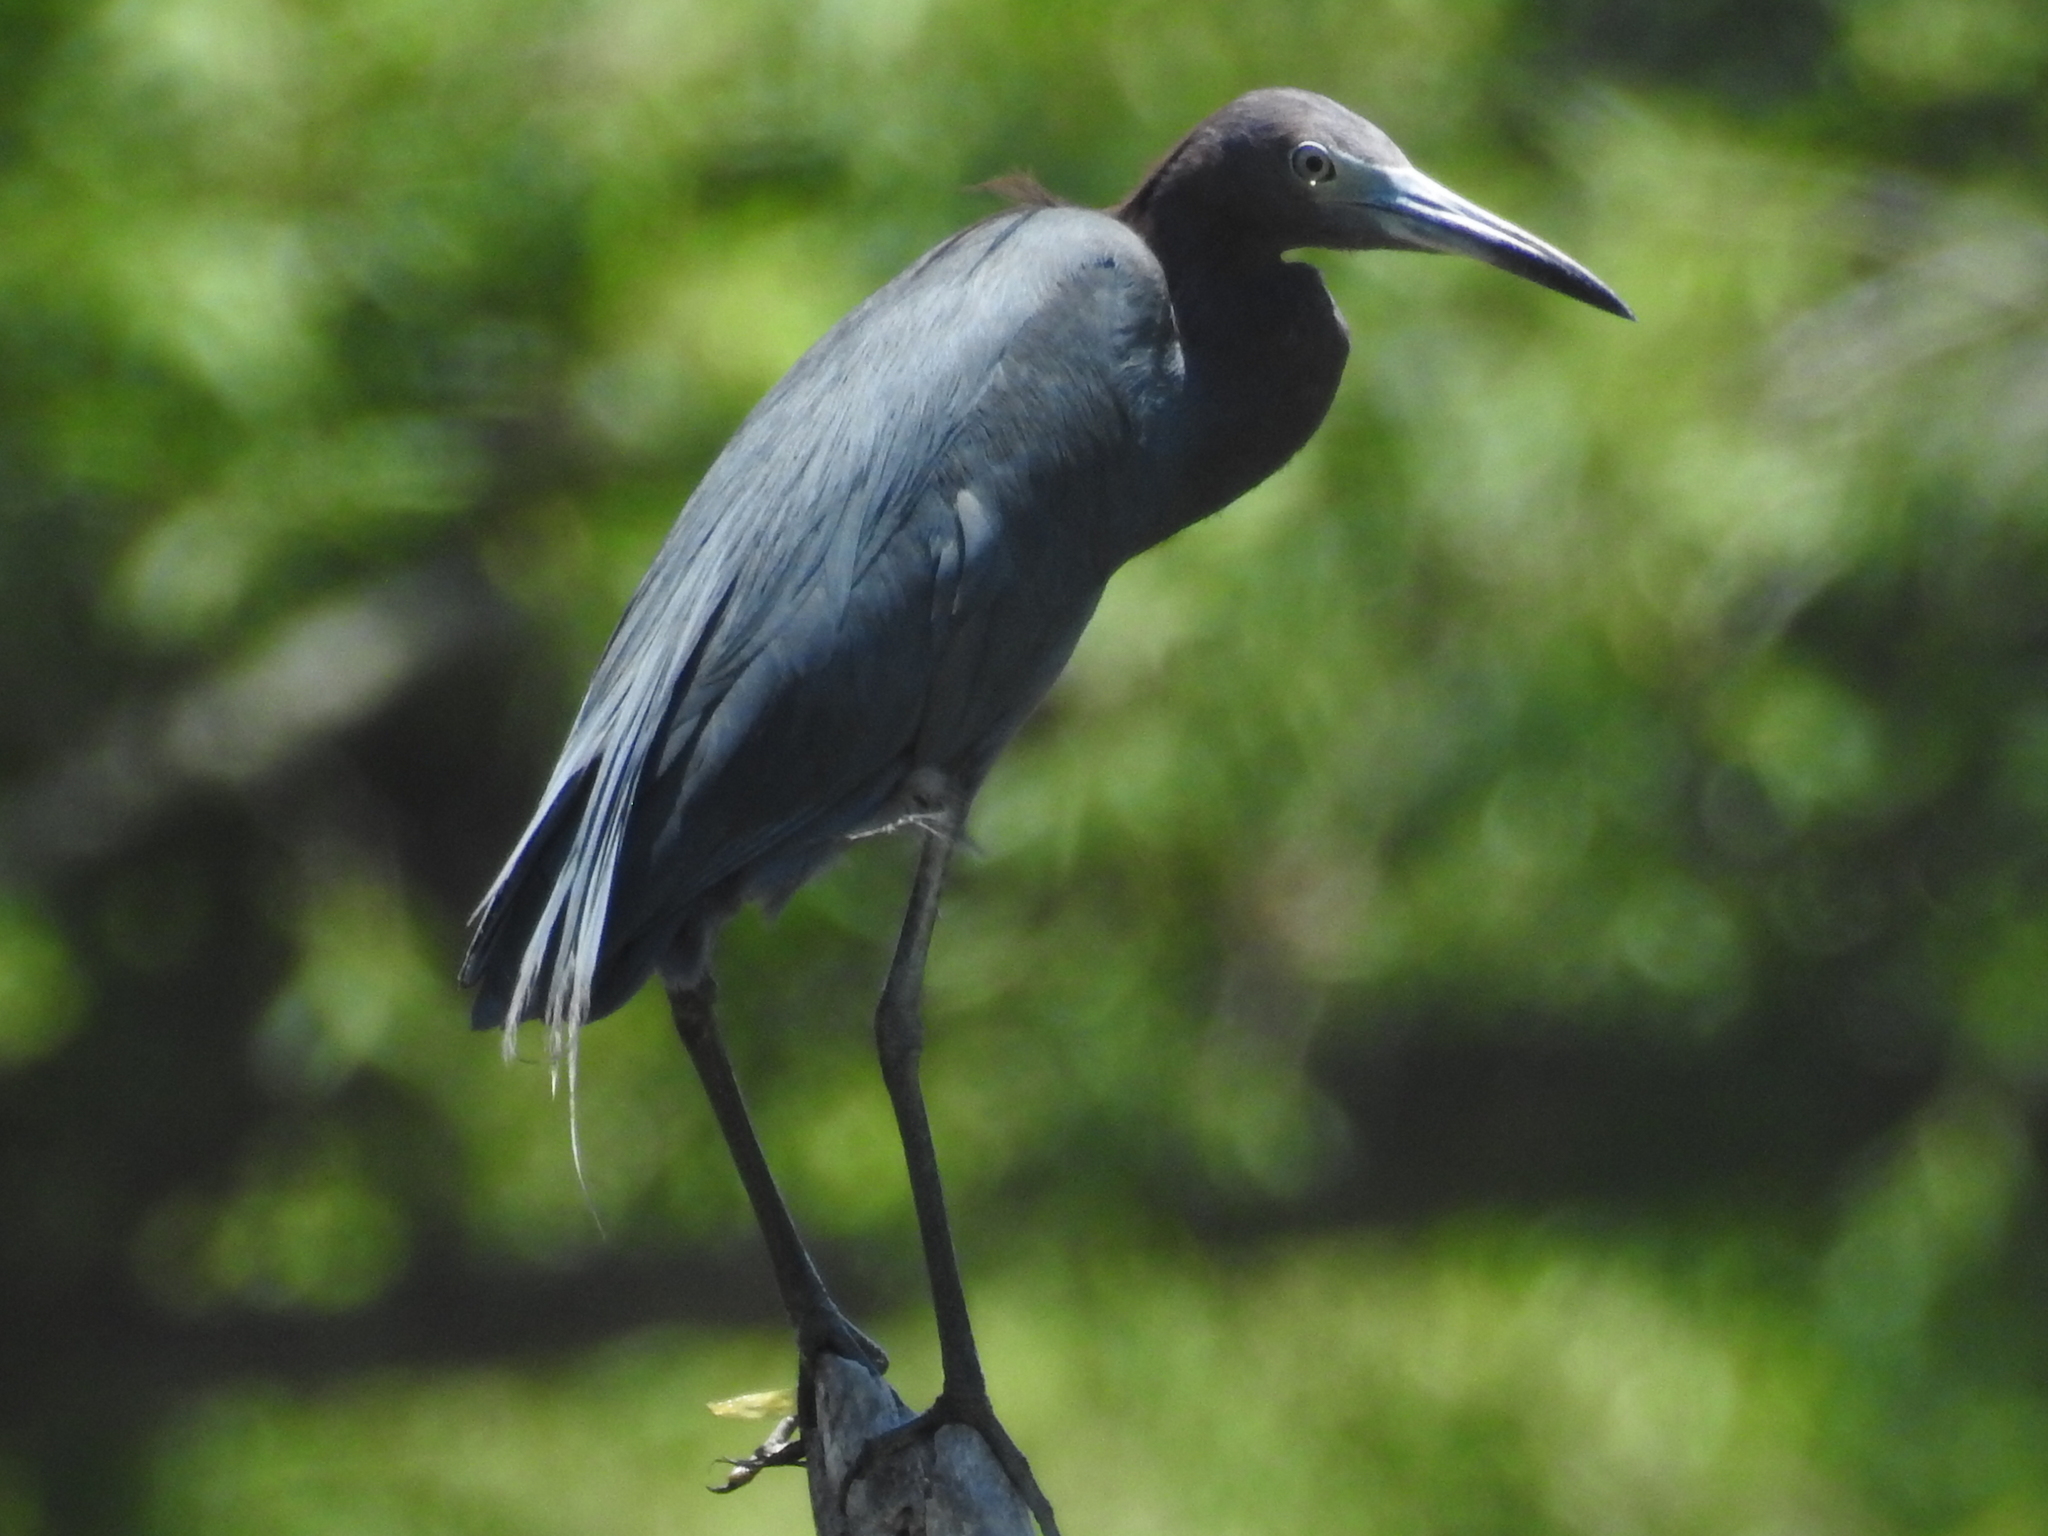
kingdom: Animalia
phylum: Chordata
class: Aves
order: Pelecaniformes
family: Ardeidae
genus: Egretta
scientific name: Egretta caerulea
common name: Little blue heron
